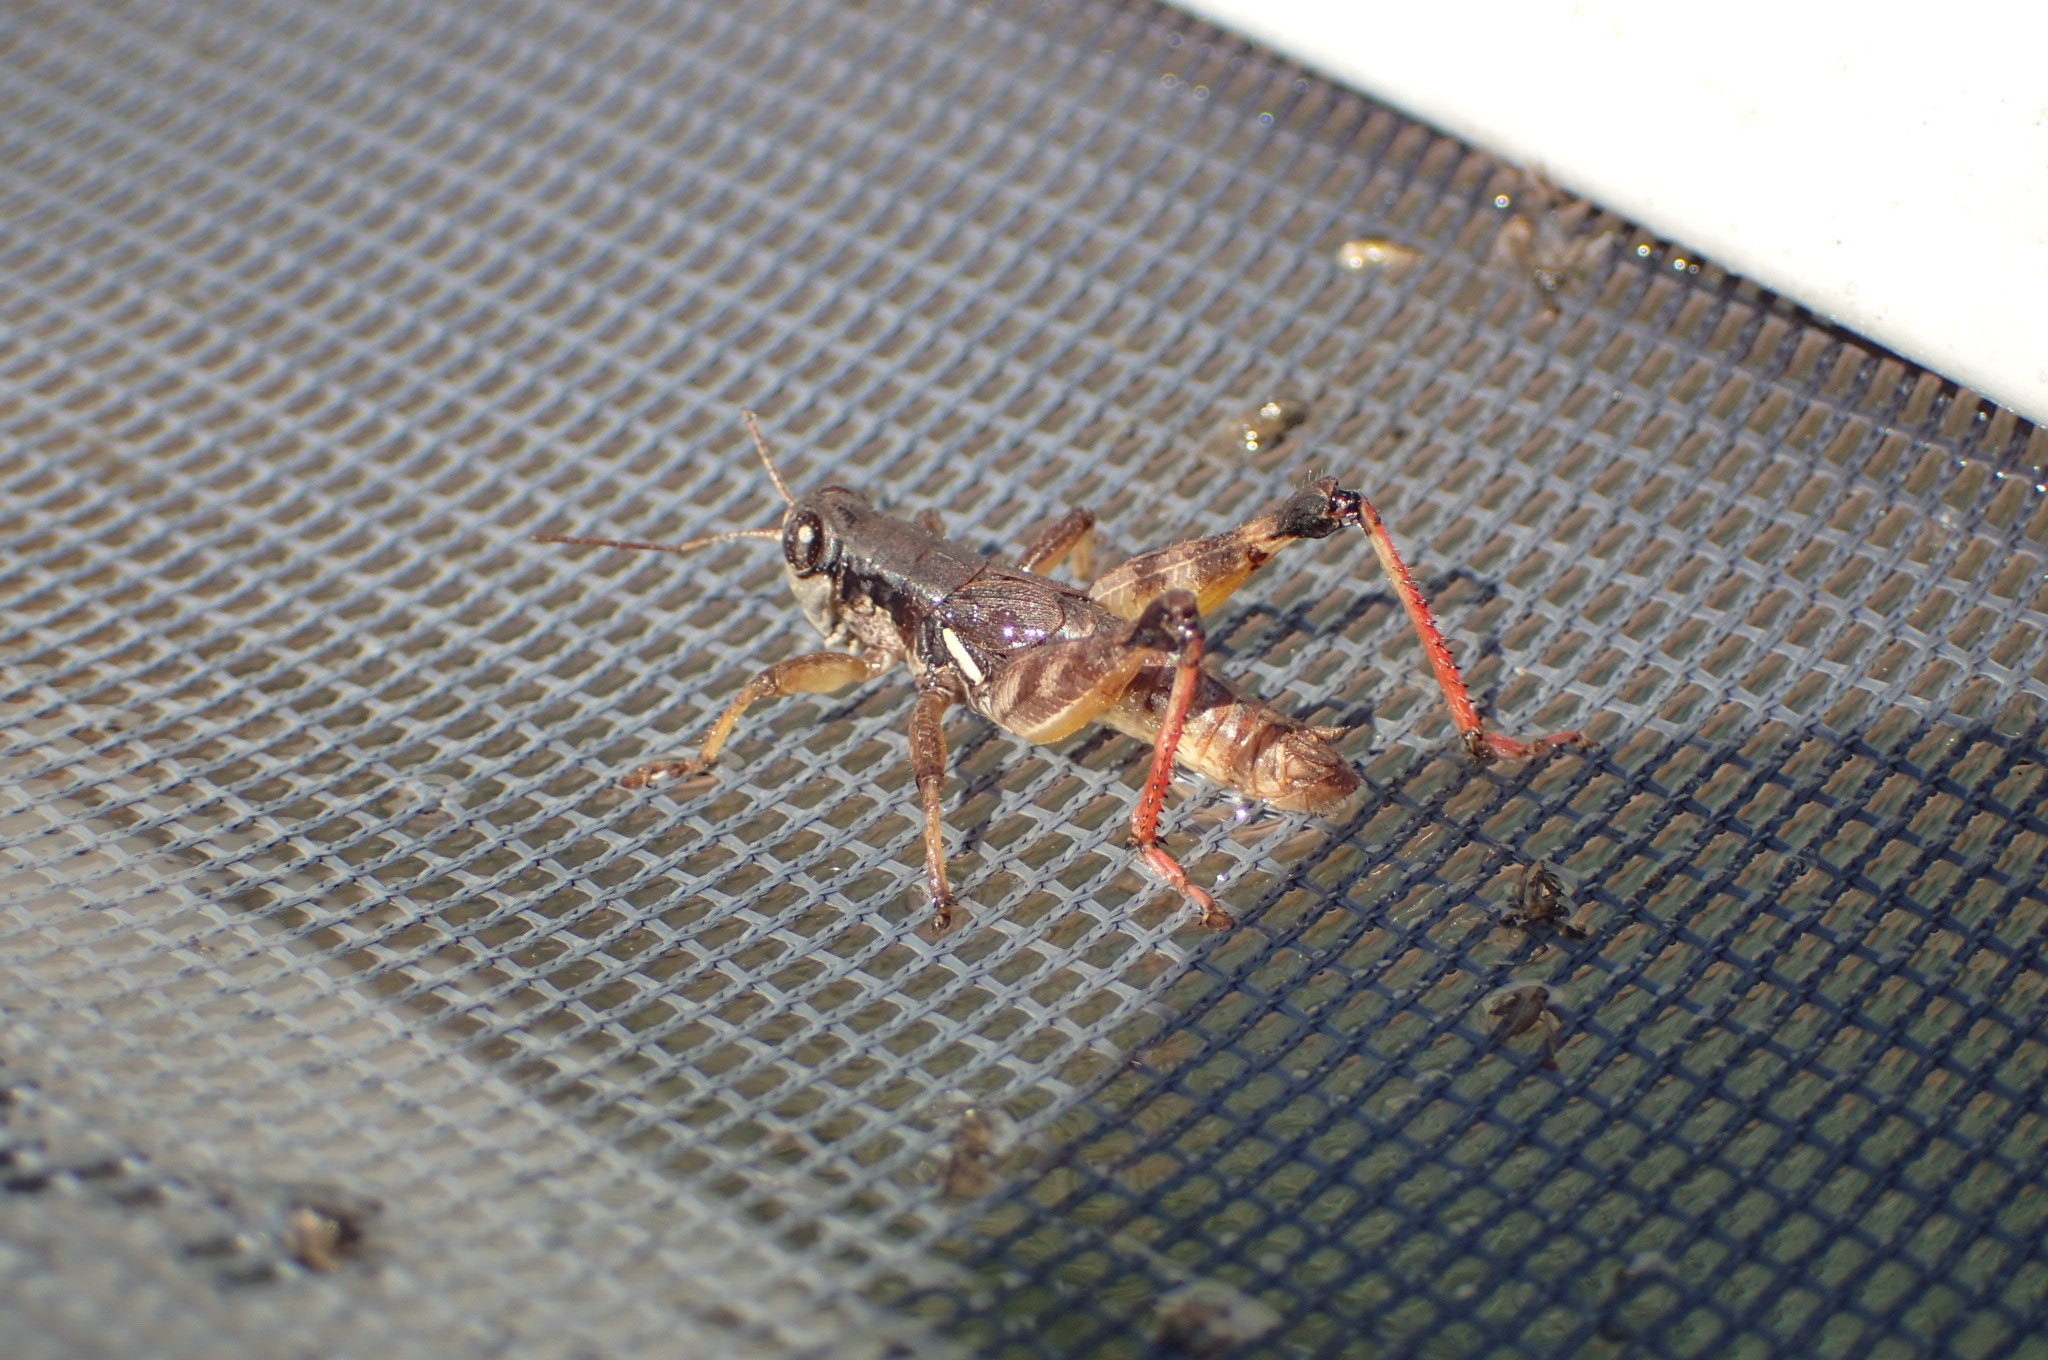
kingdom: Animalia
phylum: Arthropoda
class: Insecta
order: Orthoptera
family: Acrididae
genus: Melanoplus
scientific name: Melanoplus islandicus
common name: Island locust
